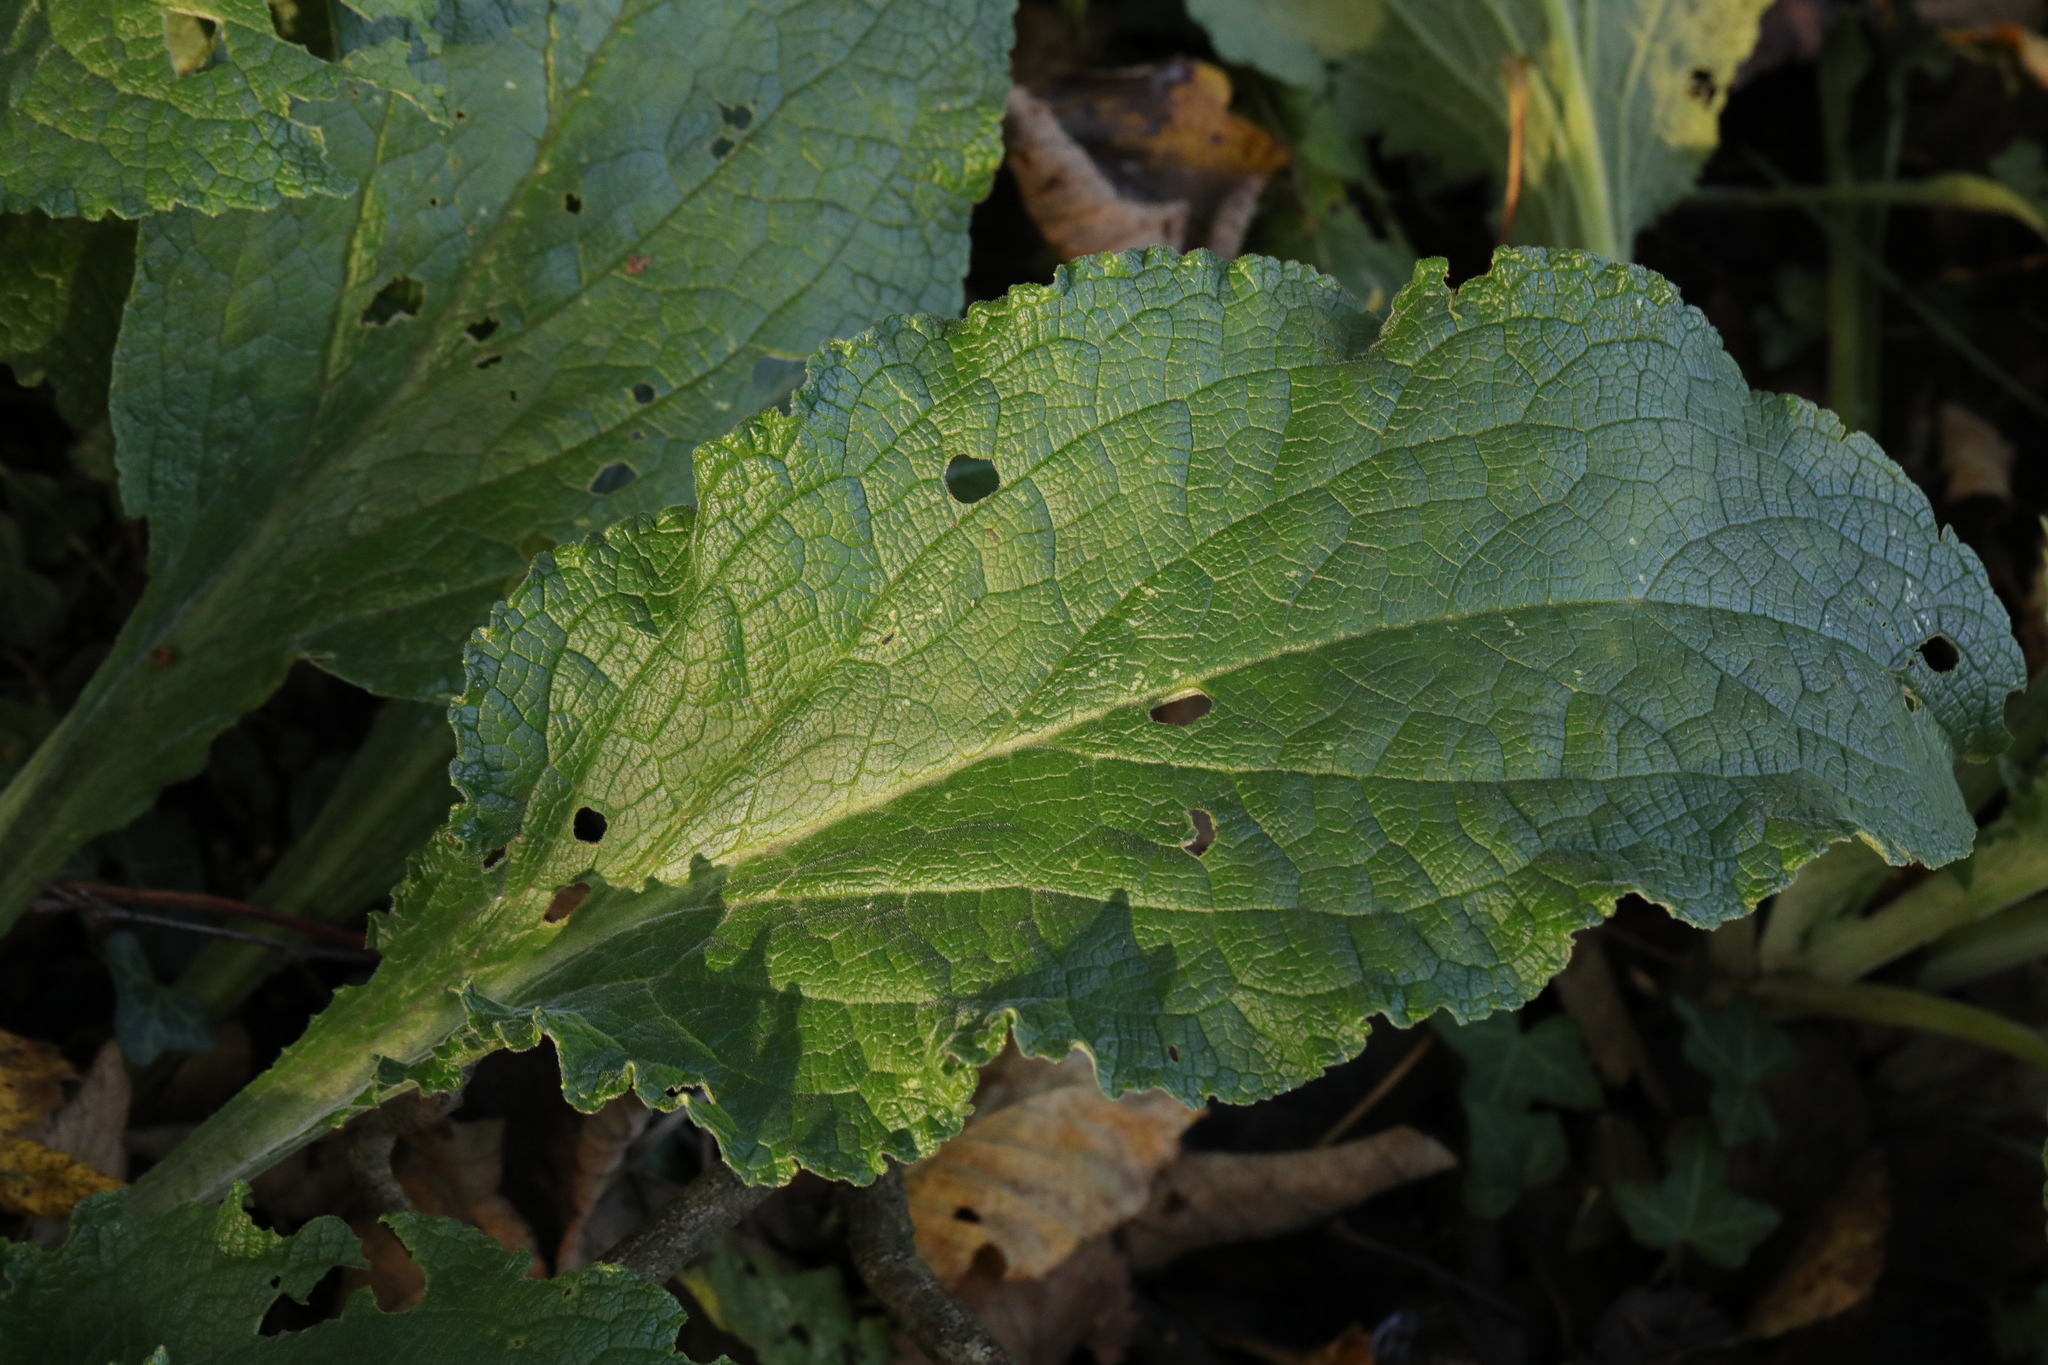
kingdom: Plantae
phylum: Tracheophyta
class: Magnoliopsida
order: Lamiales
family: Plantaginaceae
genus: Digitalis
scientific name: Digitalis purpurea
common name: Foxglove
